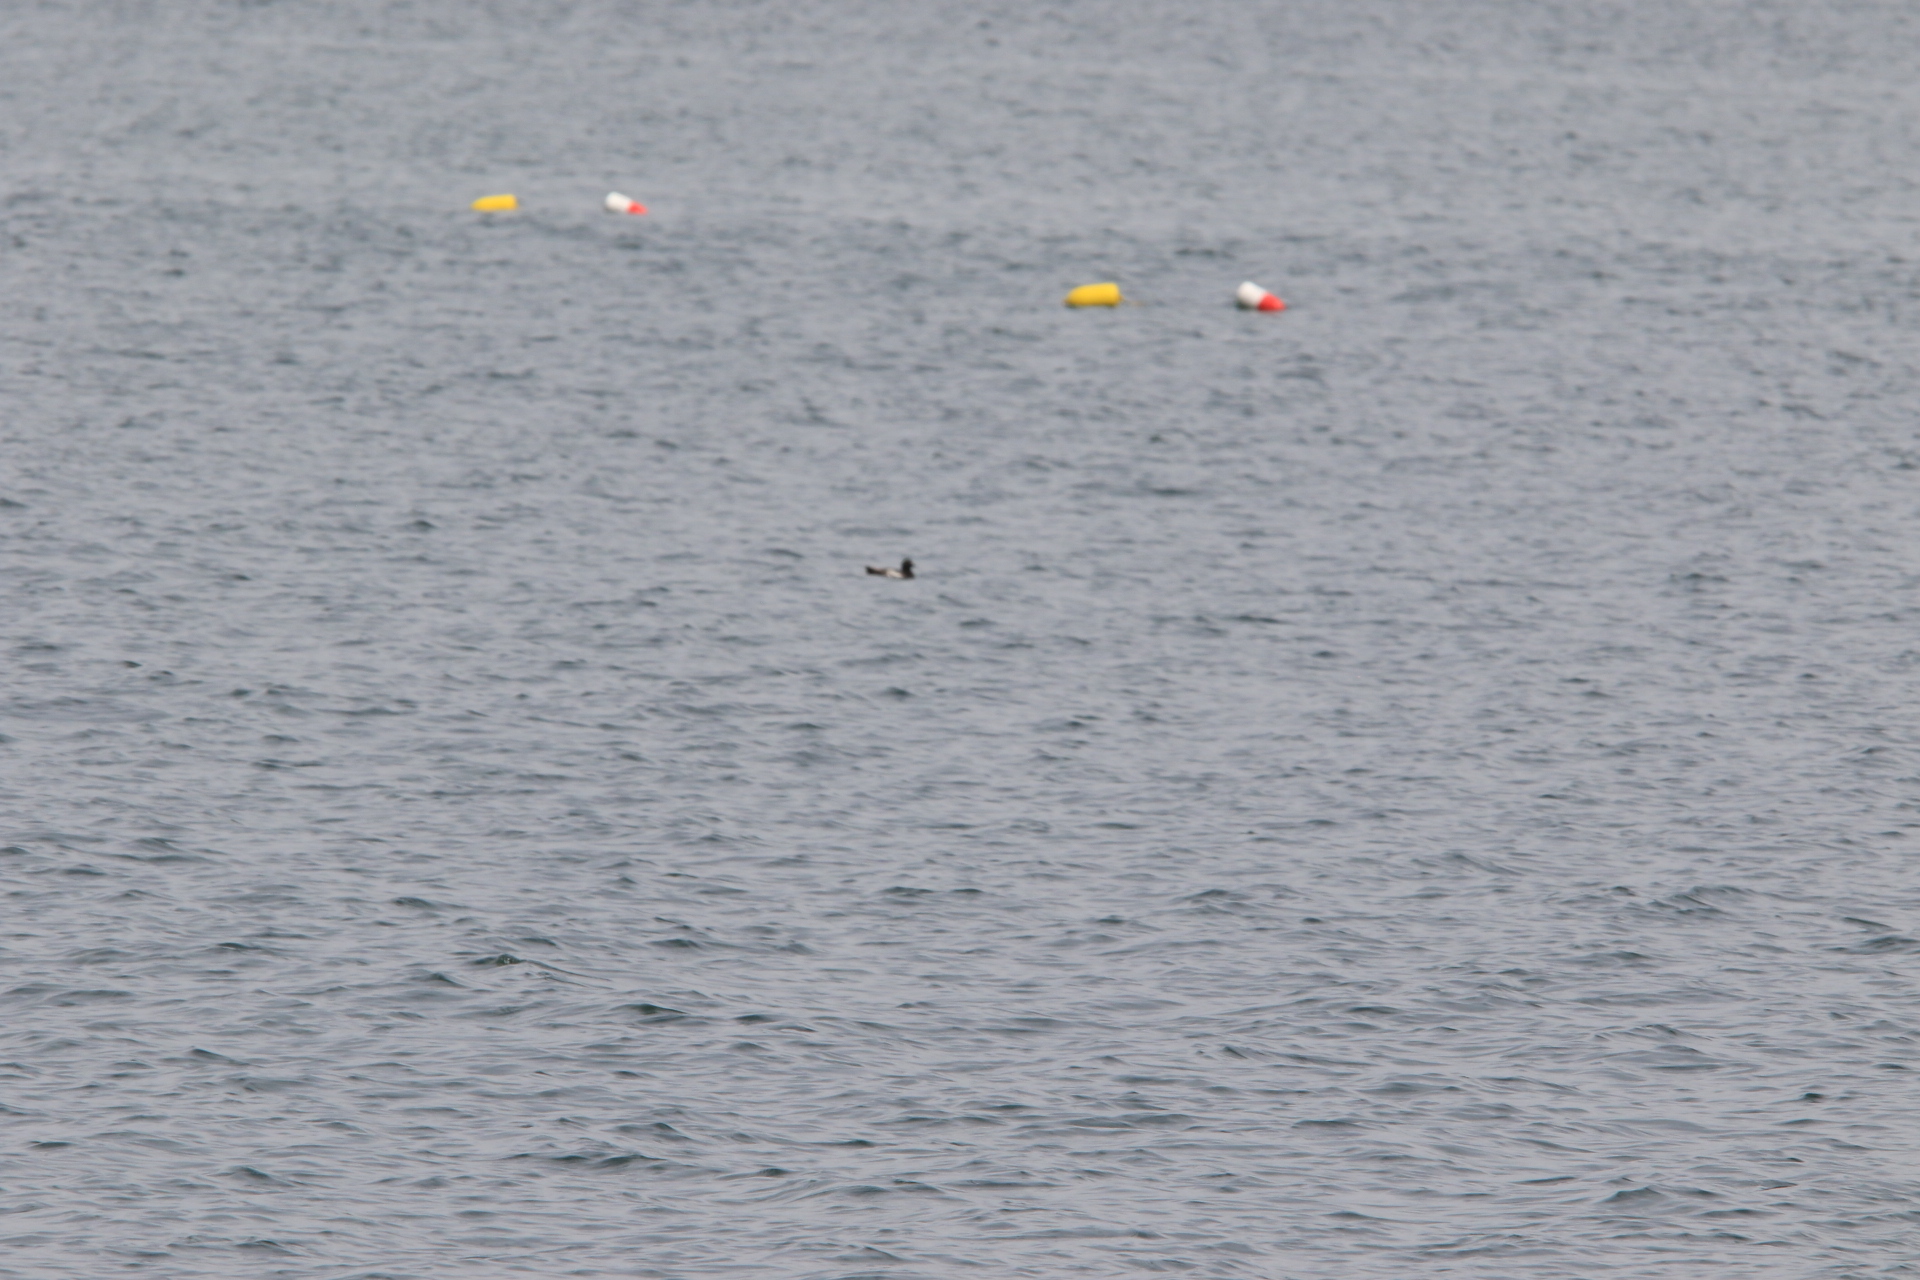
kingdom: Animalia
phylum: Chordata
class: Aves
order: Charadriiformes
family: Alcidae
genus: Cepphus
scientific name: Cepphus columba
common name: Pigeon guillemot
